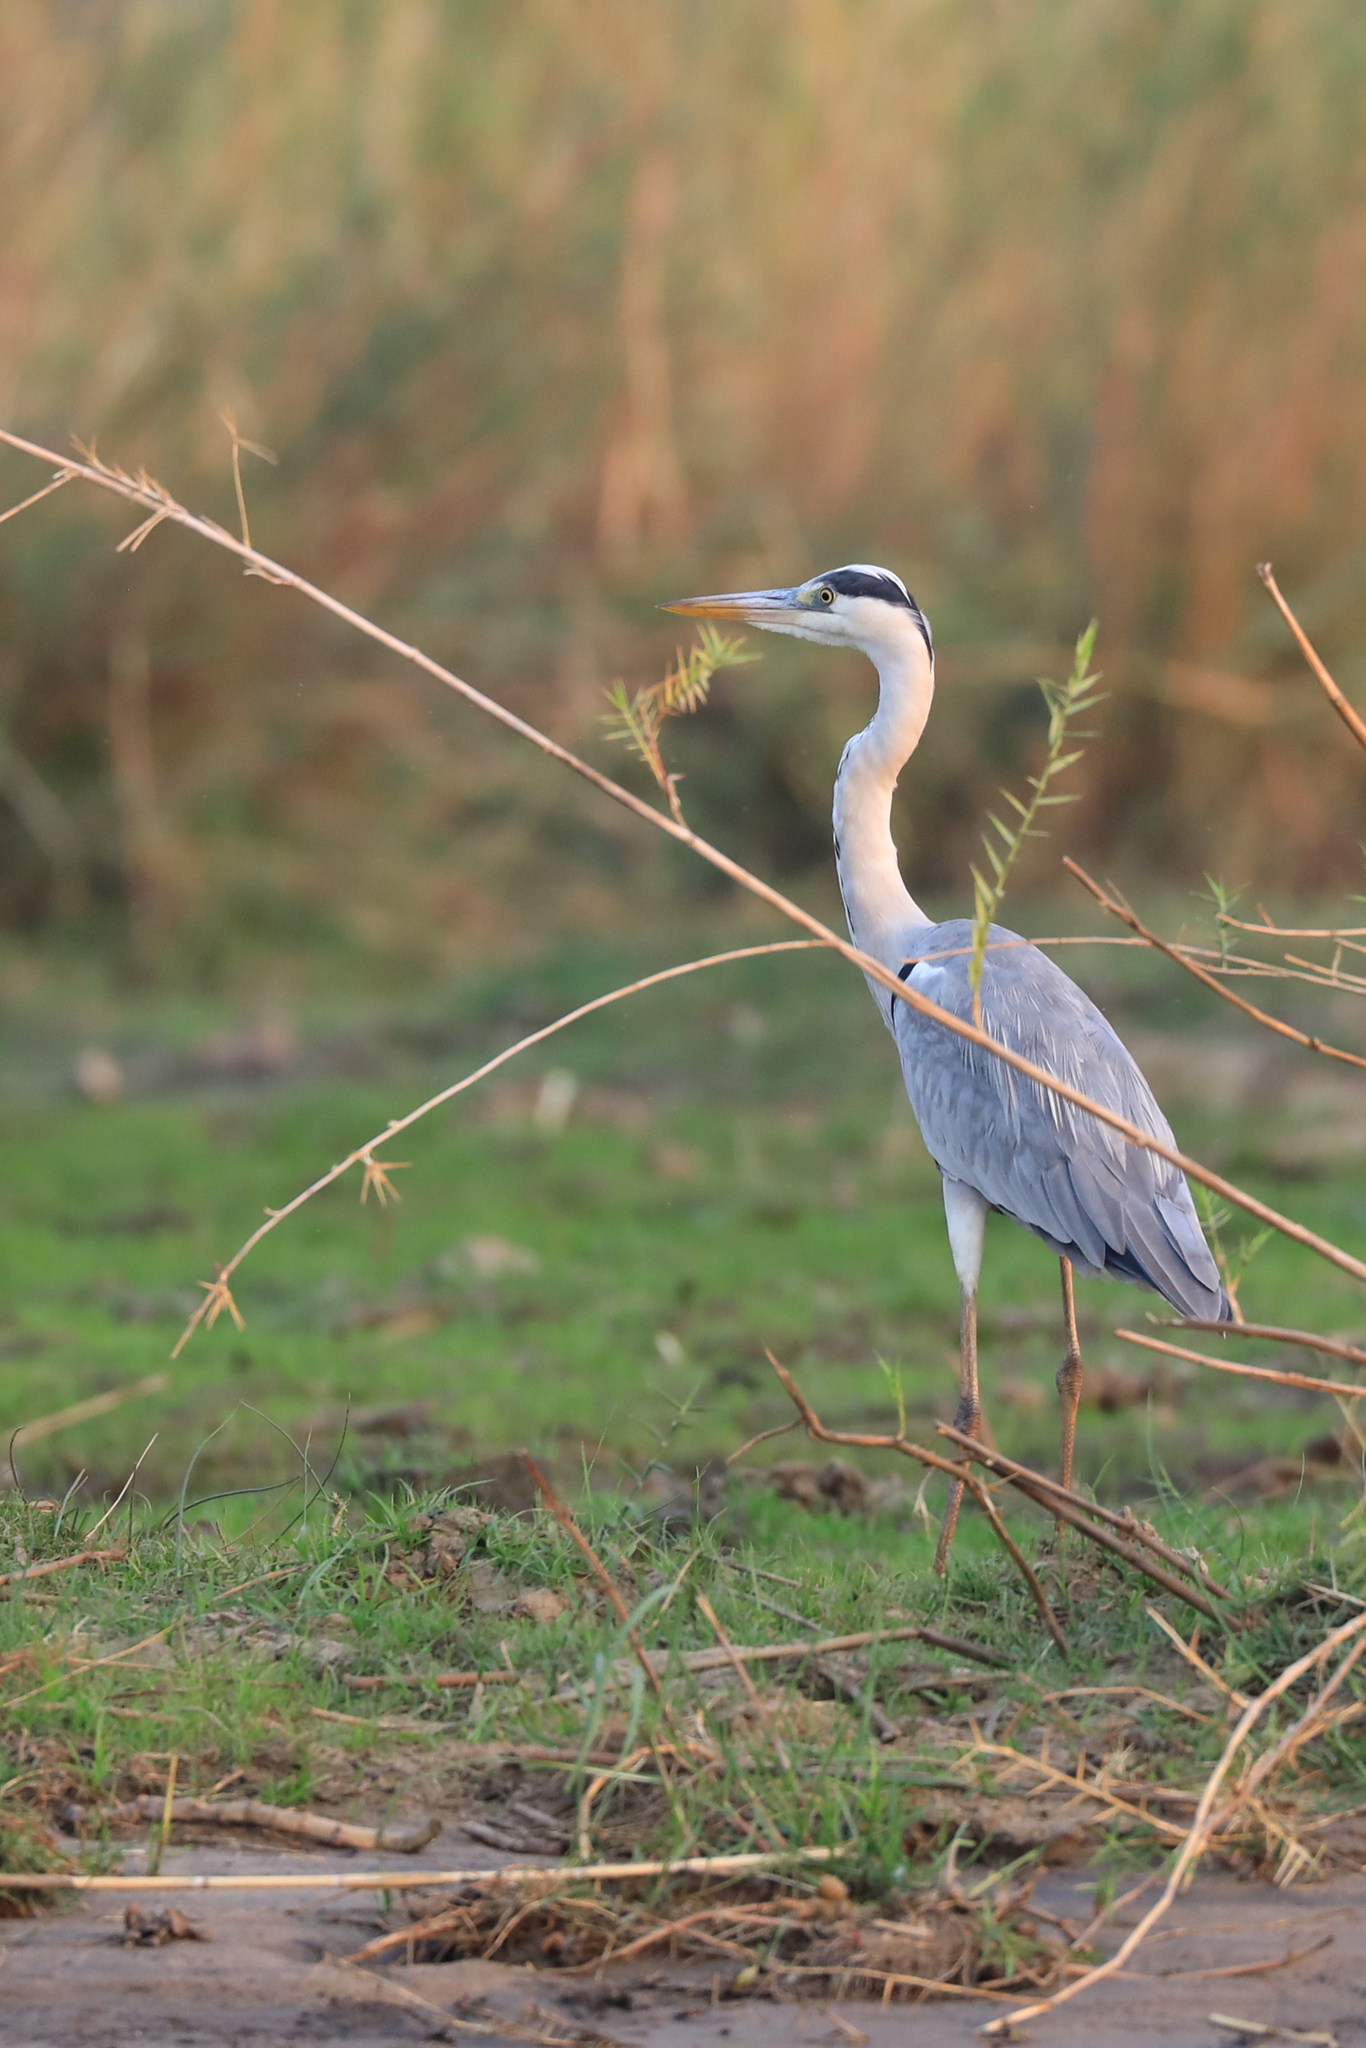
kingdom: Animalia
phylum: Chordata
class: Aves
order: Pelecaniformes
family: Ardeidae
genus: Ardea
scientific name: Ardea cinerea
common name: Grey heron
